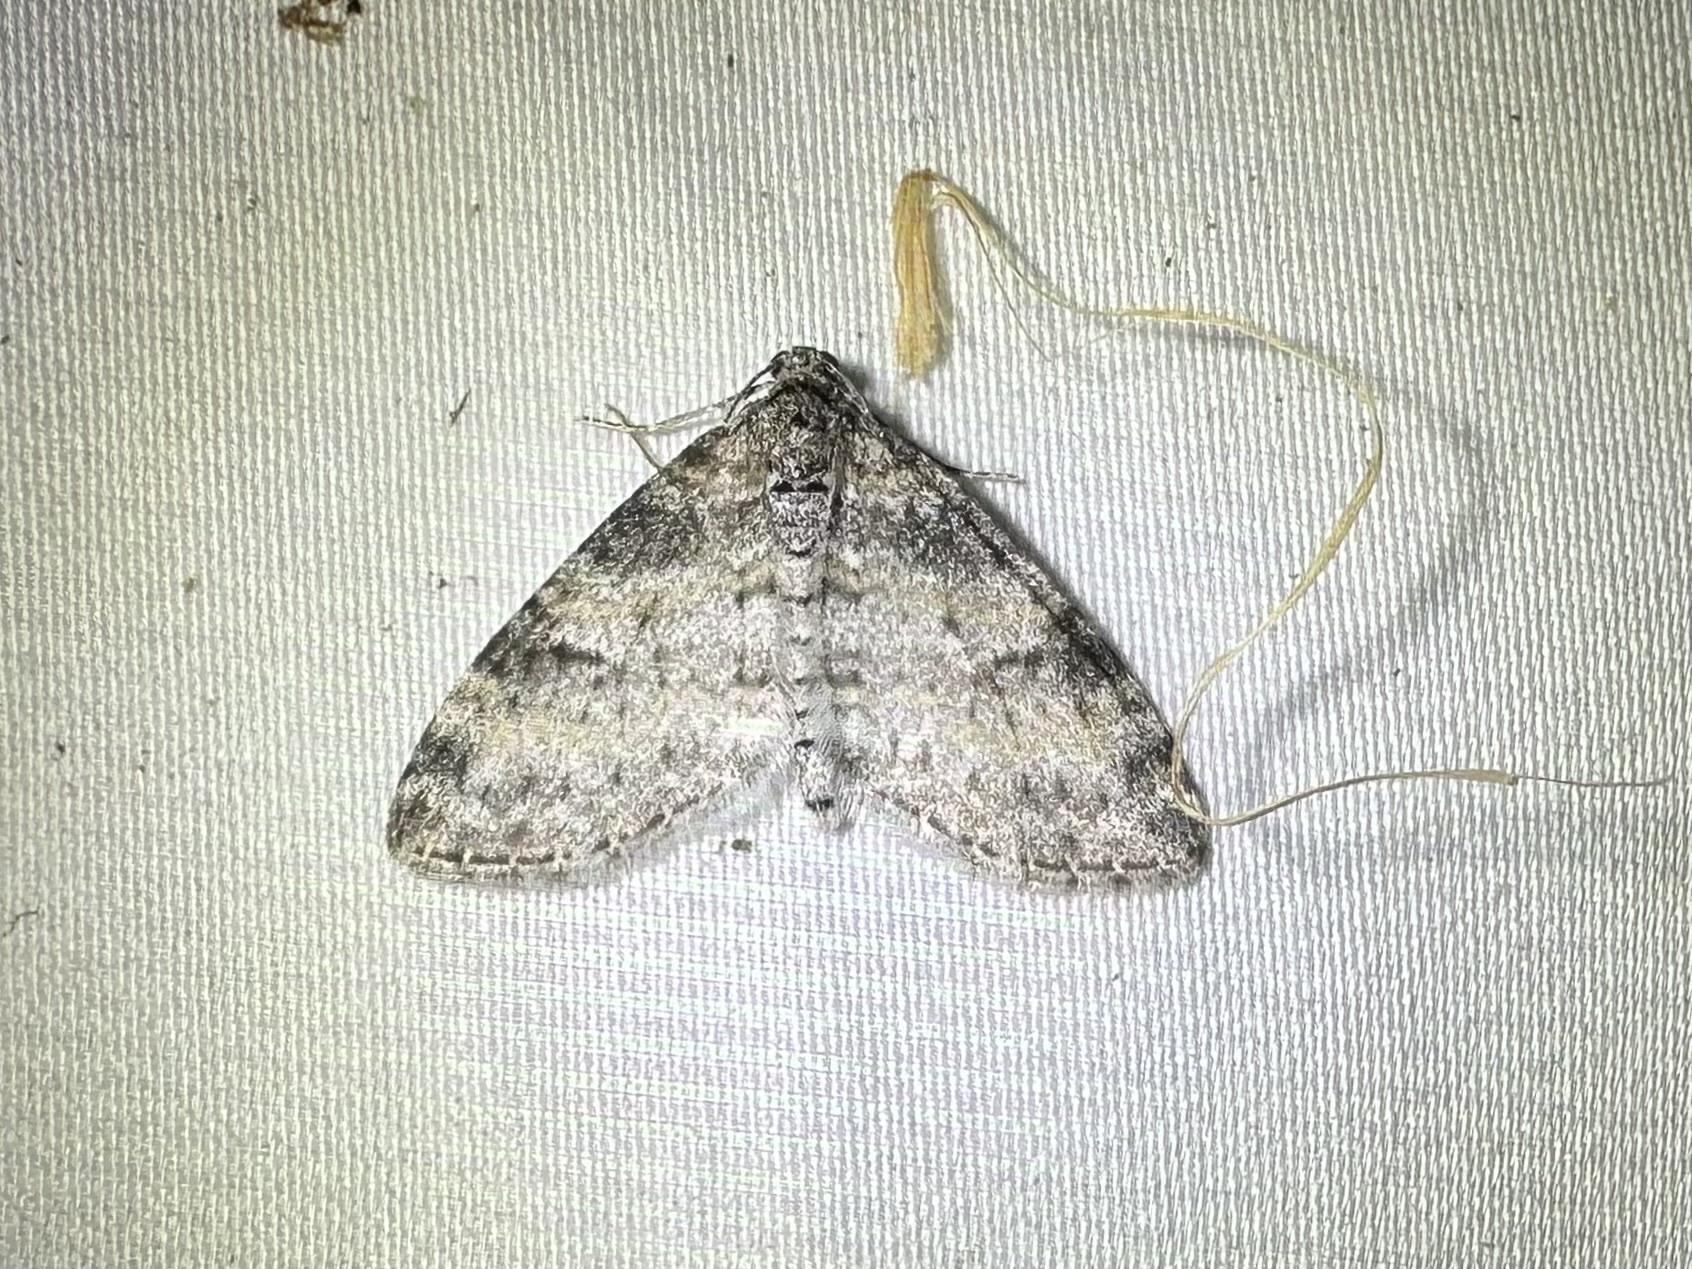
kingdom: Animalia
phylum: Arthropoda
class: Insecta
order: Lepidoptera
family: Geometridae
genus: Lobophora
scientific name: Lobophora nivigerata
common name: Powdered bigwing
